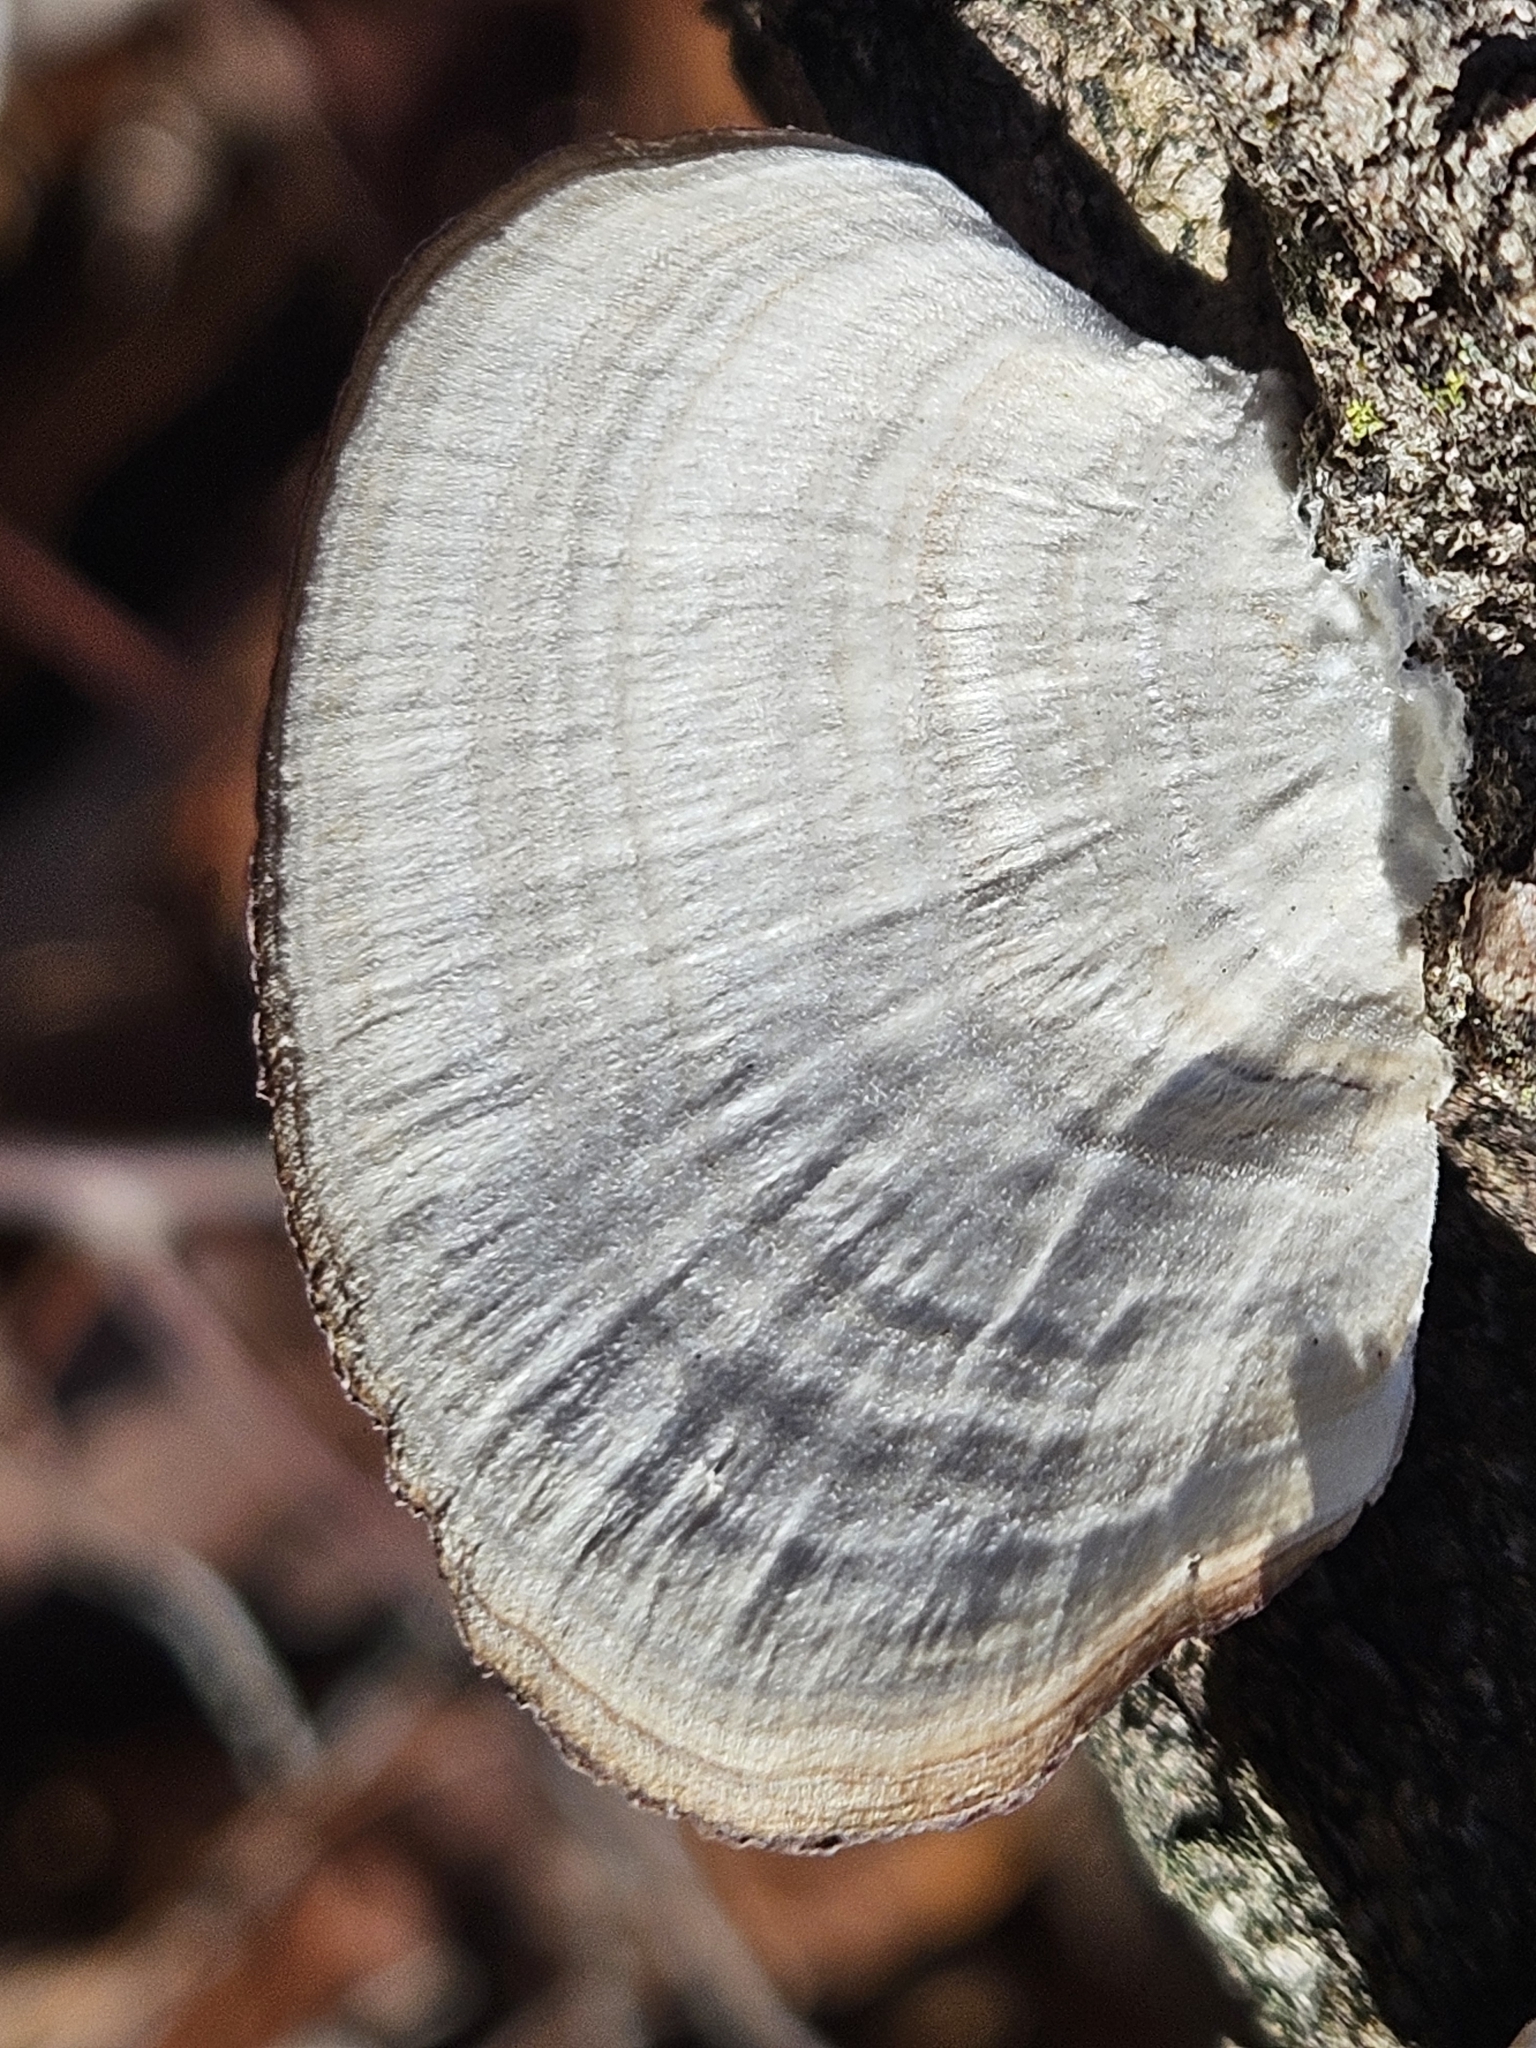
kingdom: Fungi
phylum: Basidiomycota
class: Agaricomycetes
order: Hymenochaetales
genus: Trichaptum
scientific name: Trichaptum biforme
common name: Violet-toothed polypore
